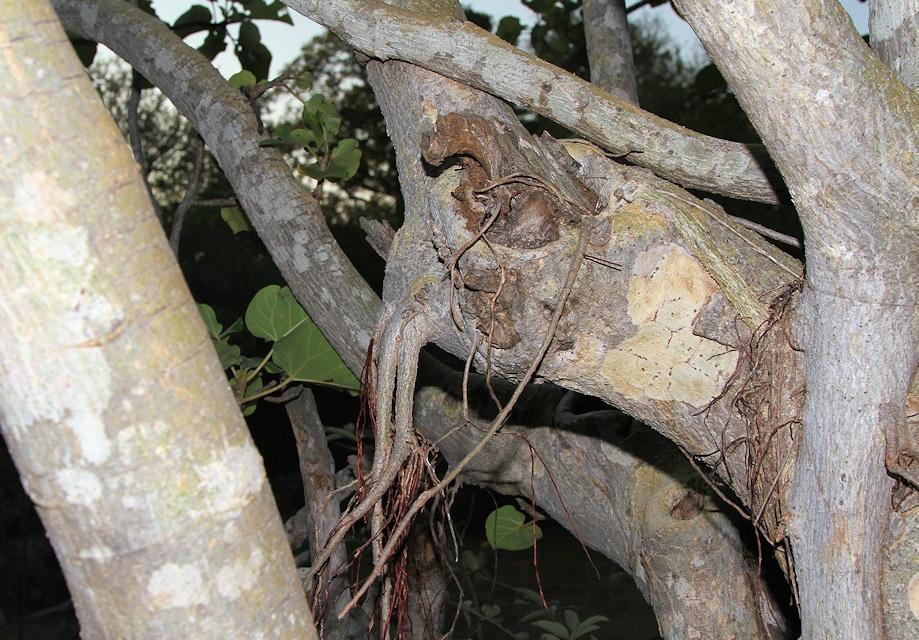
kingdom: Plantae
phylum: Tracheophyta
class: Magnoliopsida
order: Rosales
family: Moraceae
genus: Ficus
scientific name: Ficus abutilifolia
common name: Large-leaved rock fig
